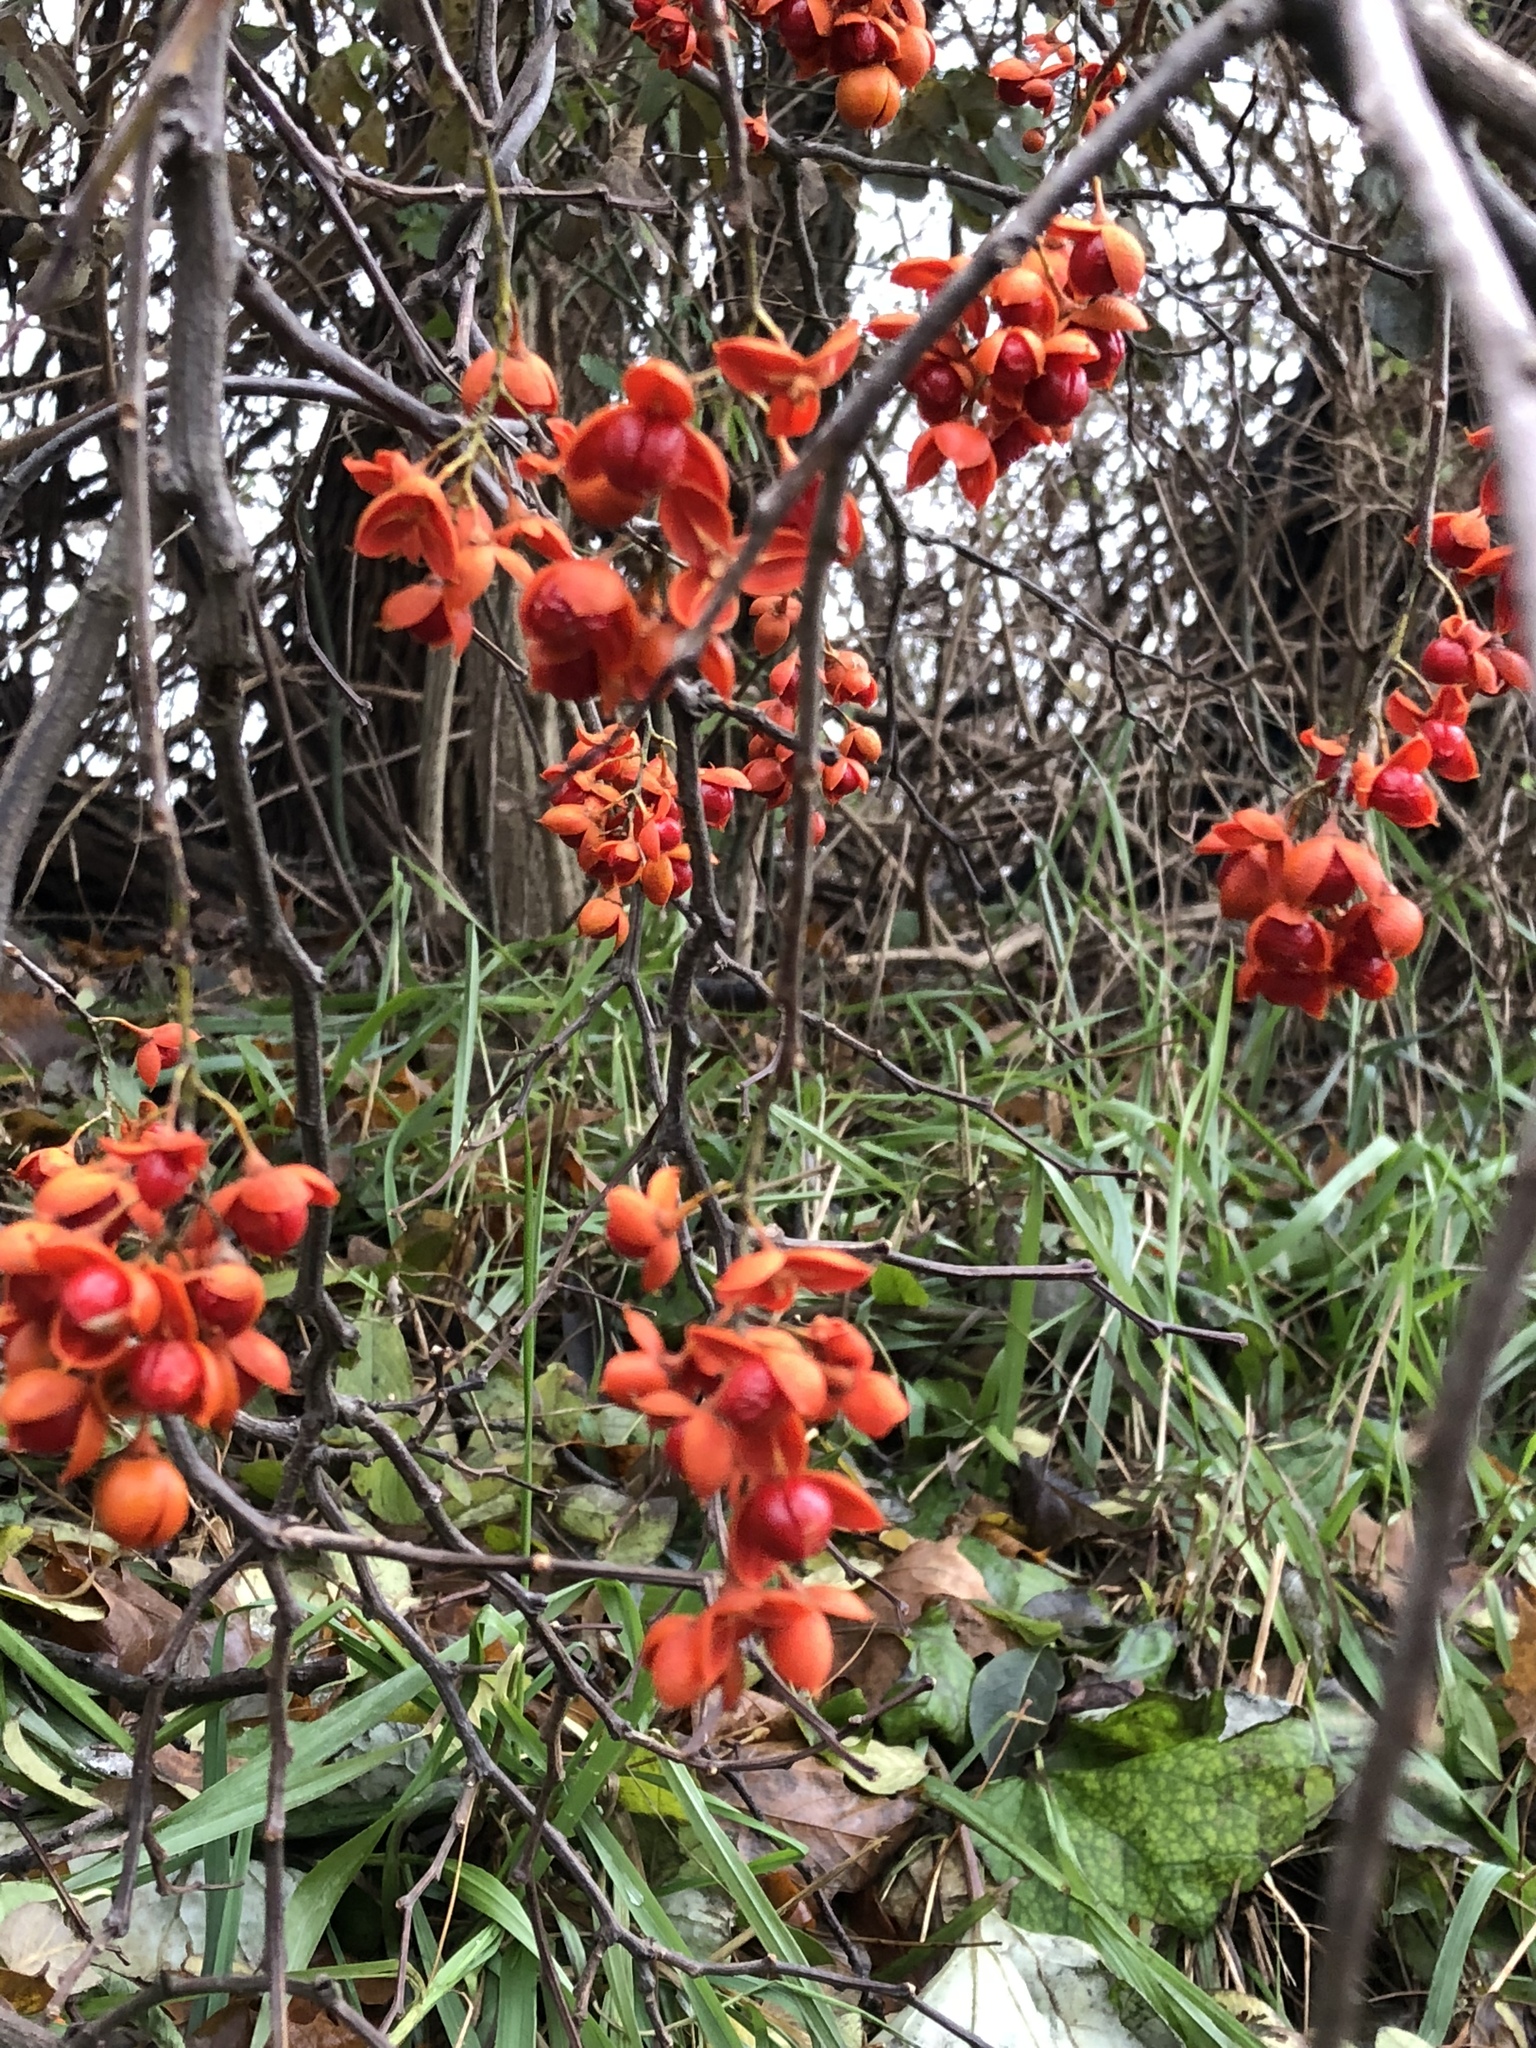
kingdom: Plantae
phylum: Tracheophyta
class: Magnoliopsida
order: Celastrales
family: Celastraceae
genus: Celastrus
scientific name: Celastrus scandens
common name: American bittersweet
